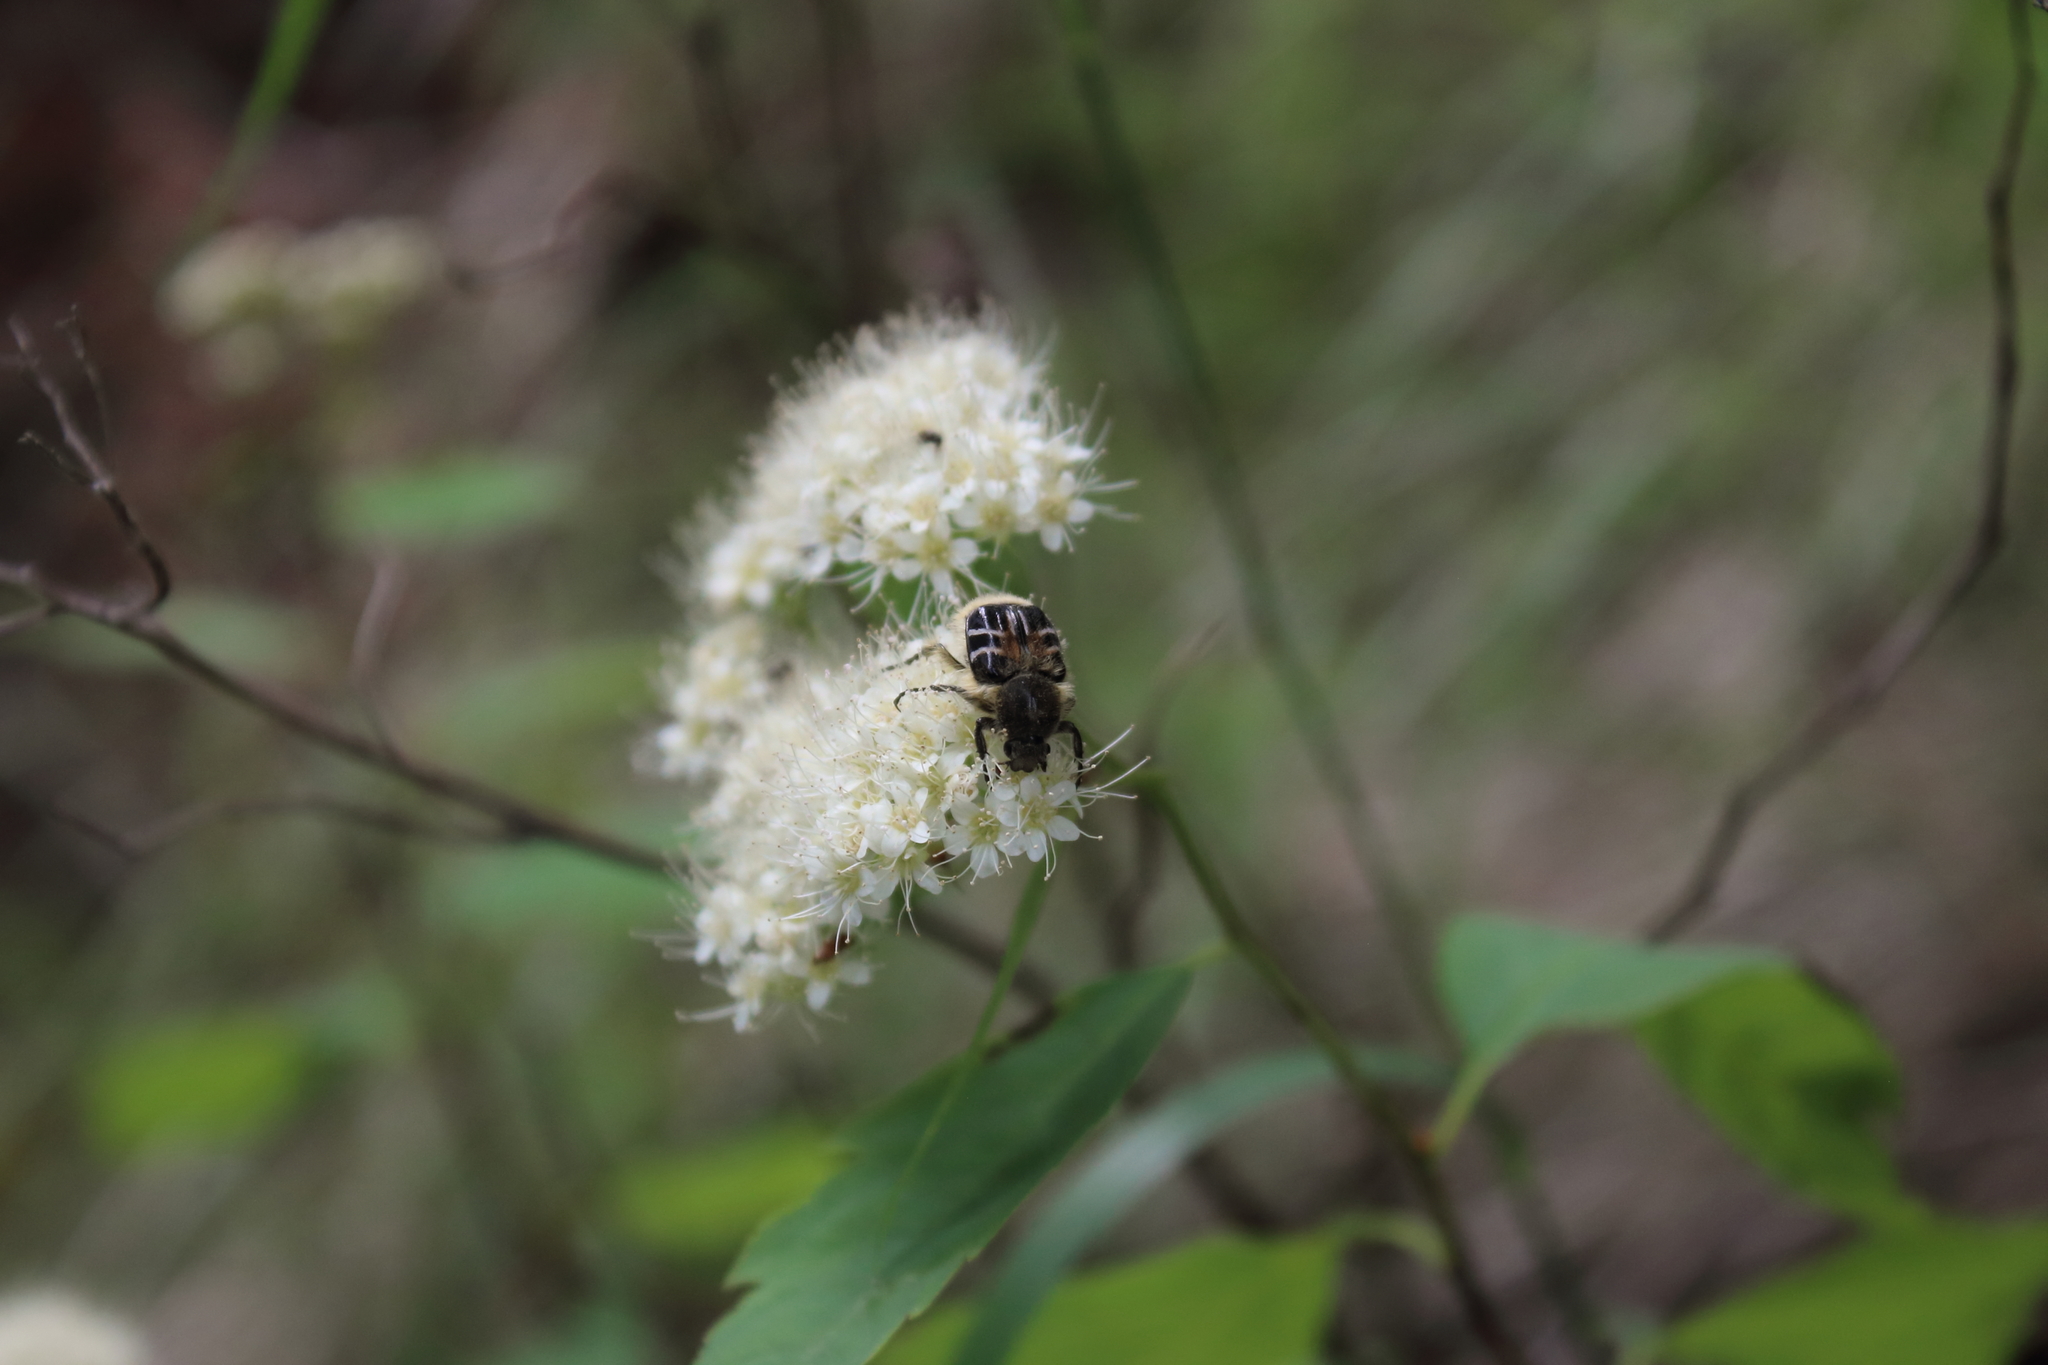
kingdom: Animalia
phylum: Arthropoda
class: Insecta
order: Coleoptera
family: Scarabaeidae
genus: Trichiotinus
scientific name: Trichiotinus assimilis
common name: Bee-mimic beetle
